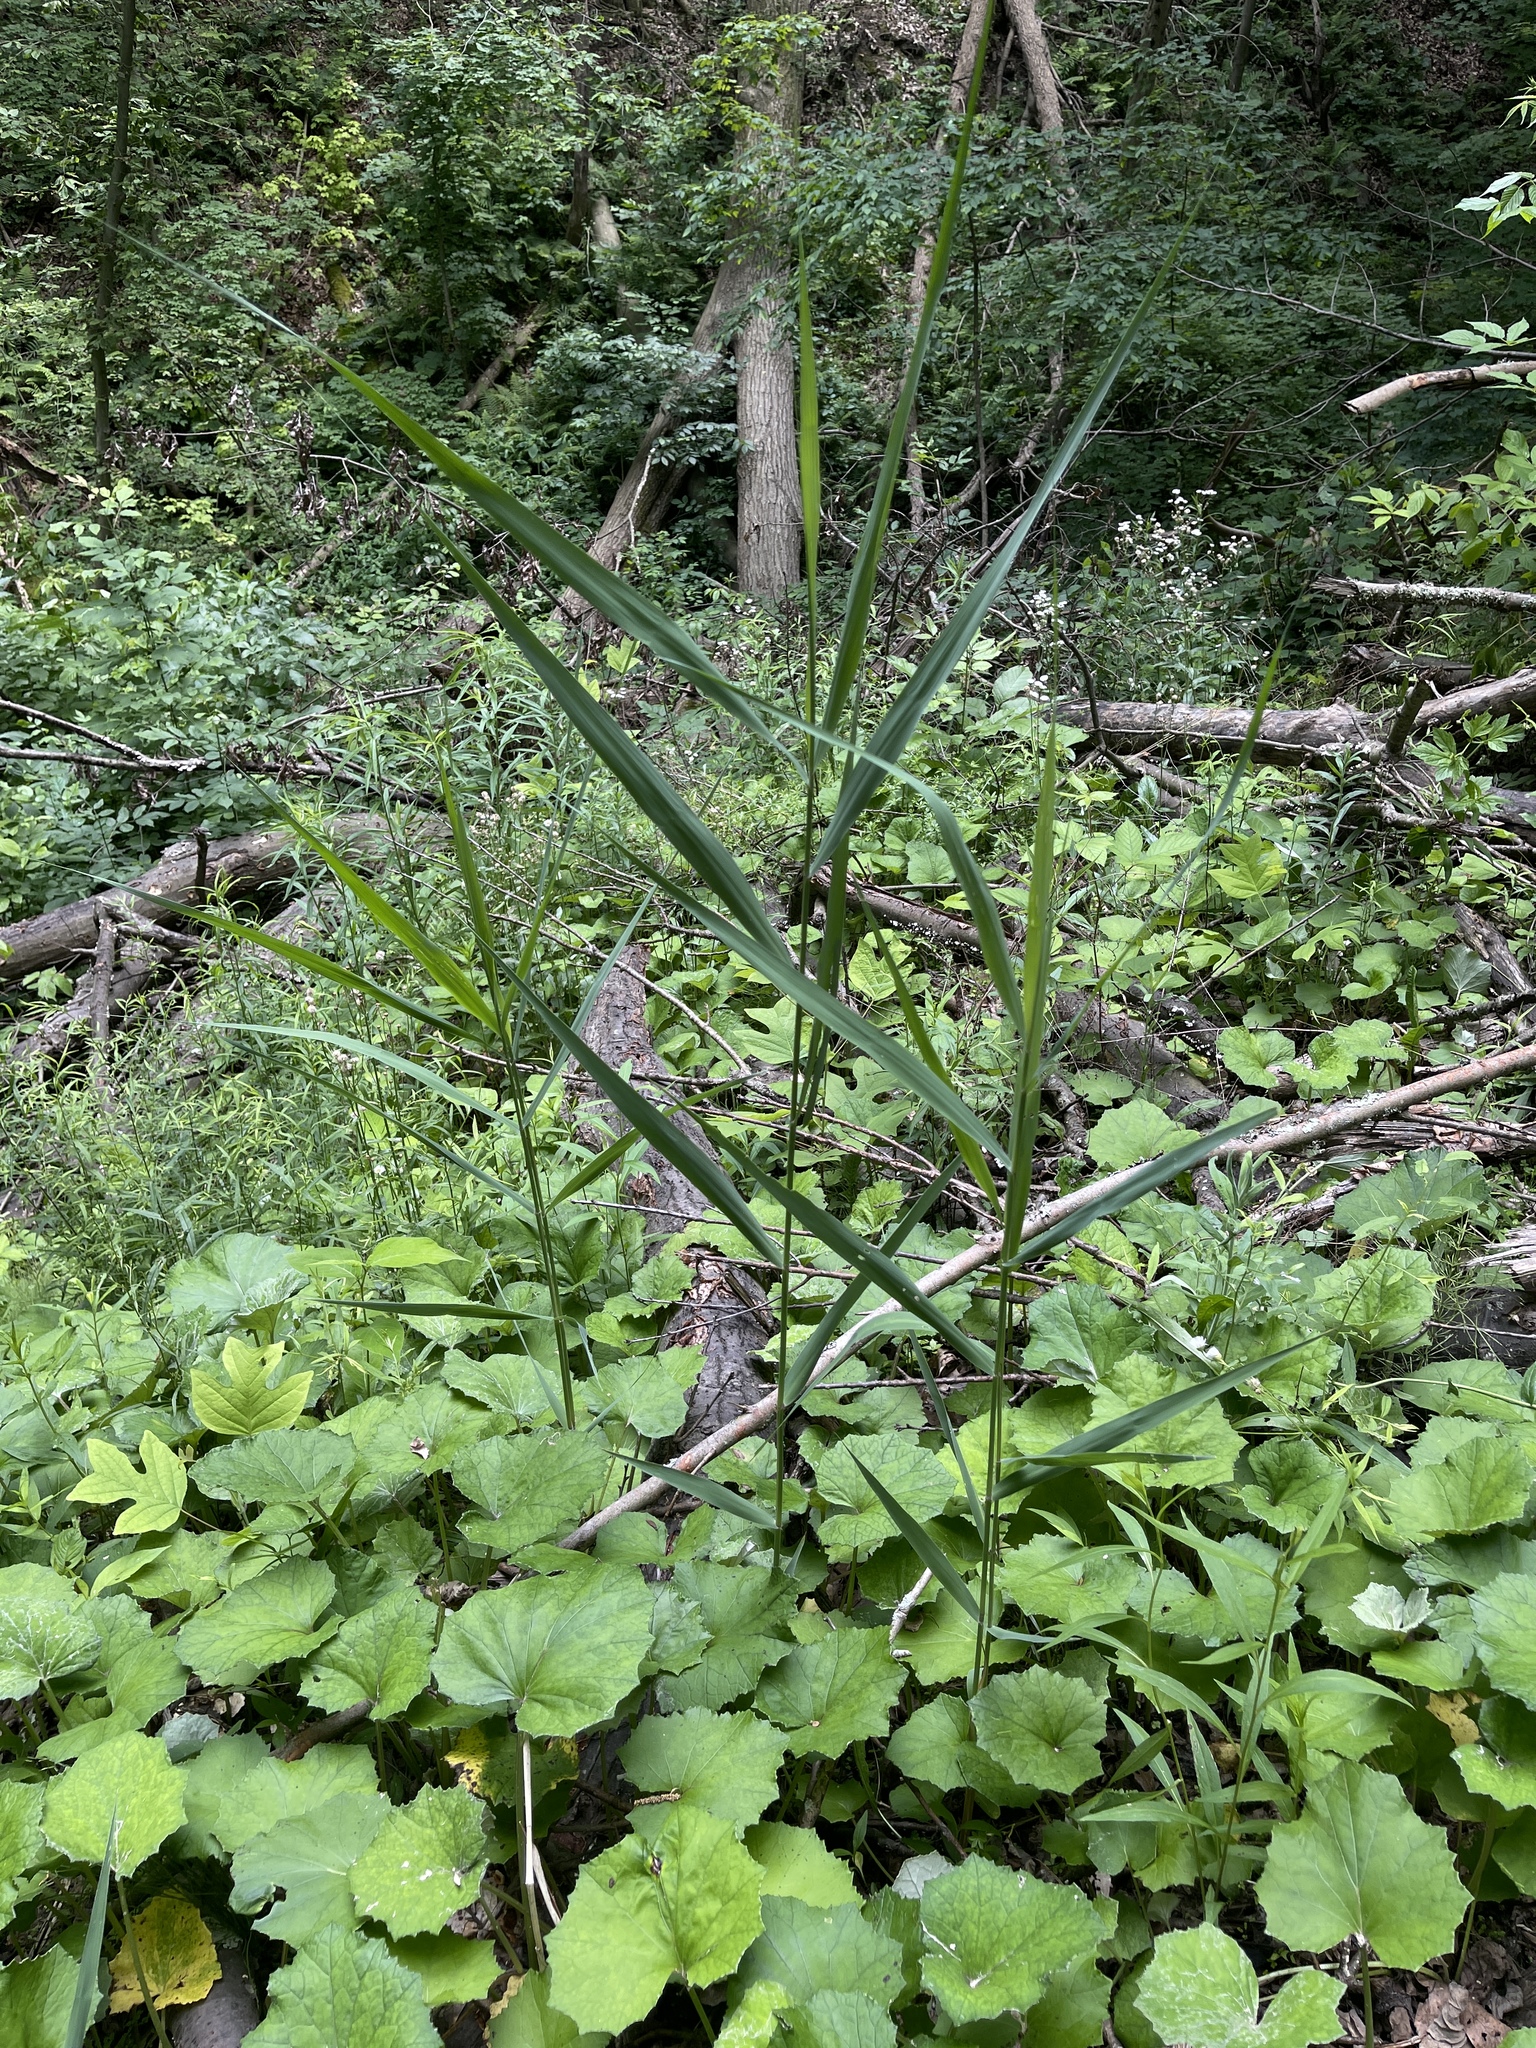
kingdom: Plantae
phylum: Tracheophyta
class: Liliopsida
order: Poales
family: Poaceae
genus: Phragmites
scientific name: Phragmites australis
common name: Common reed
